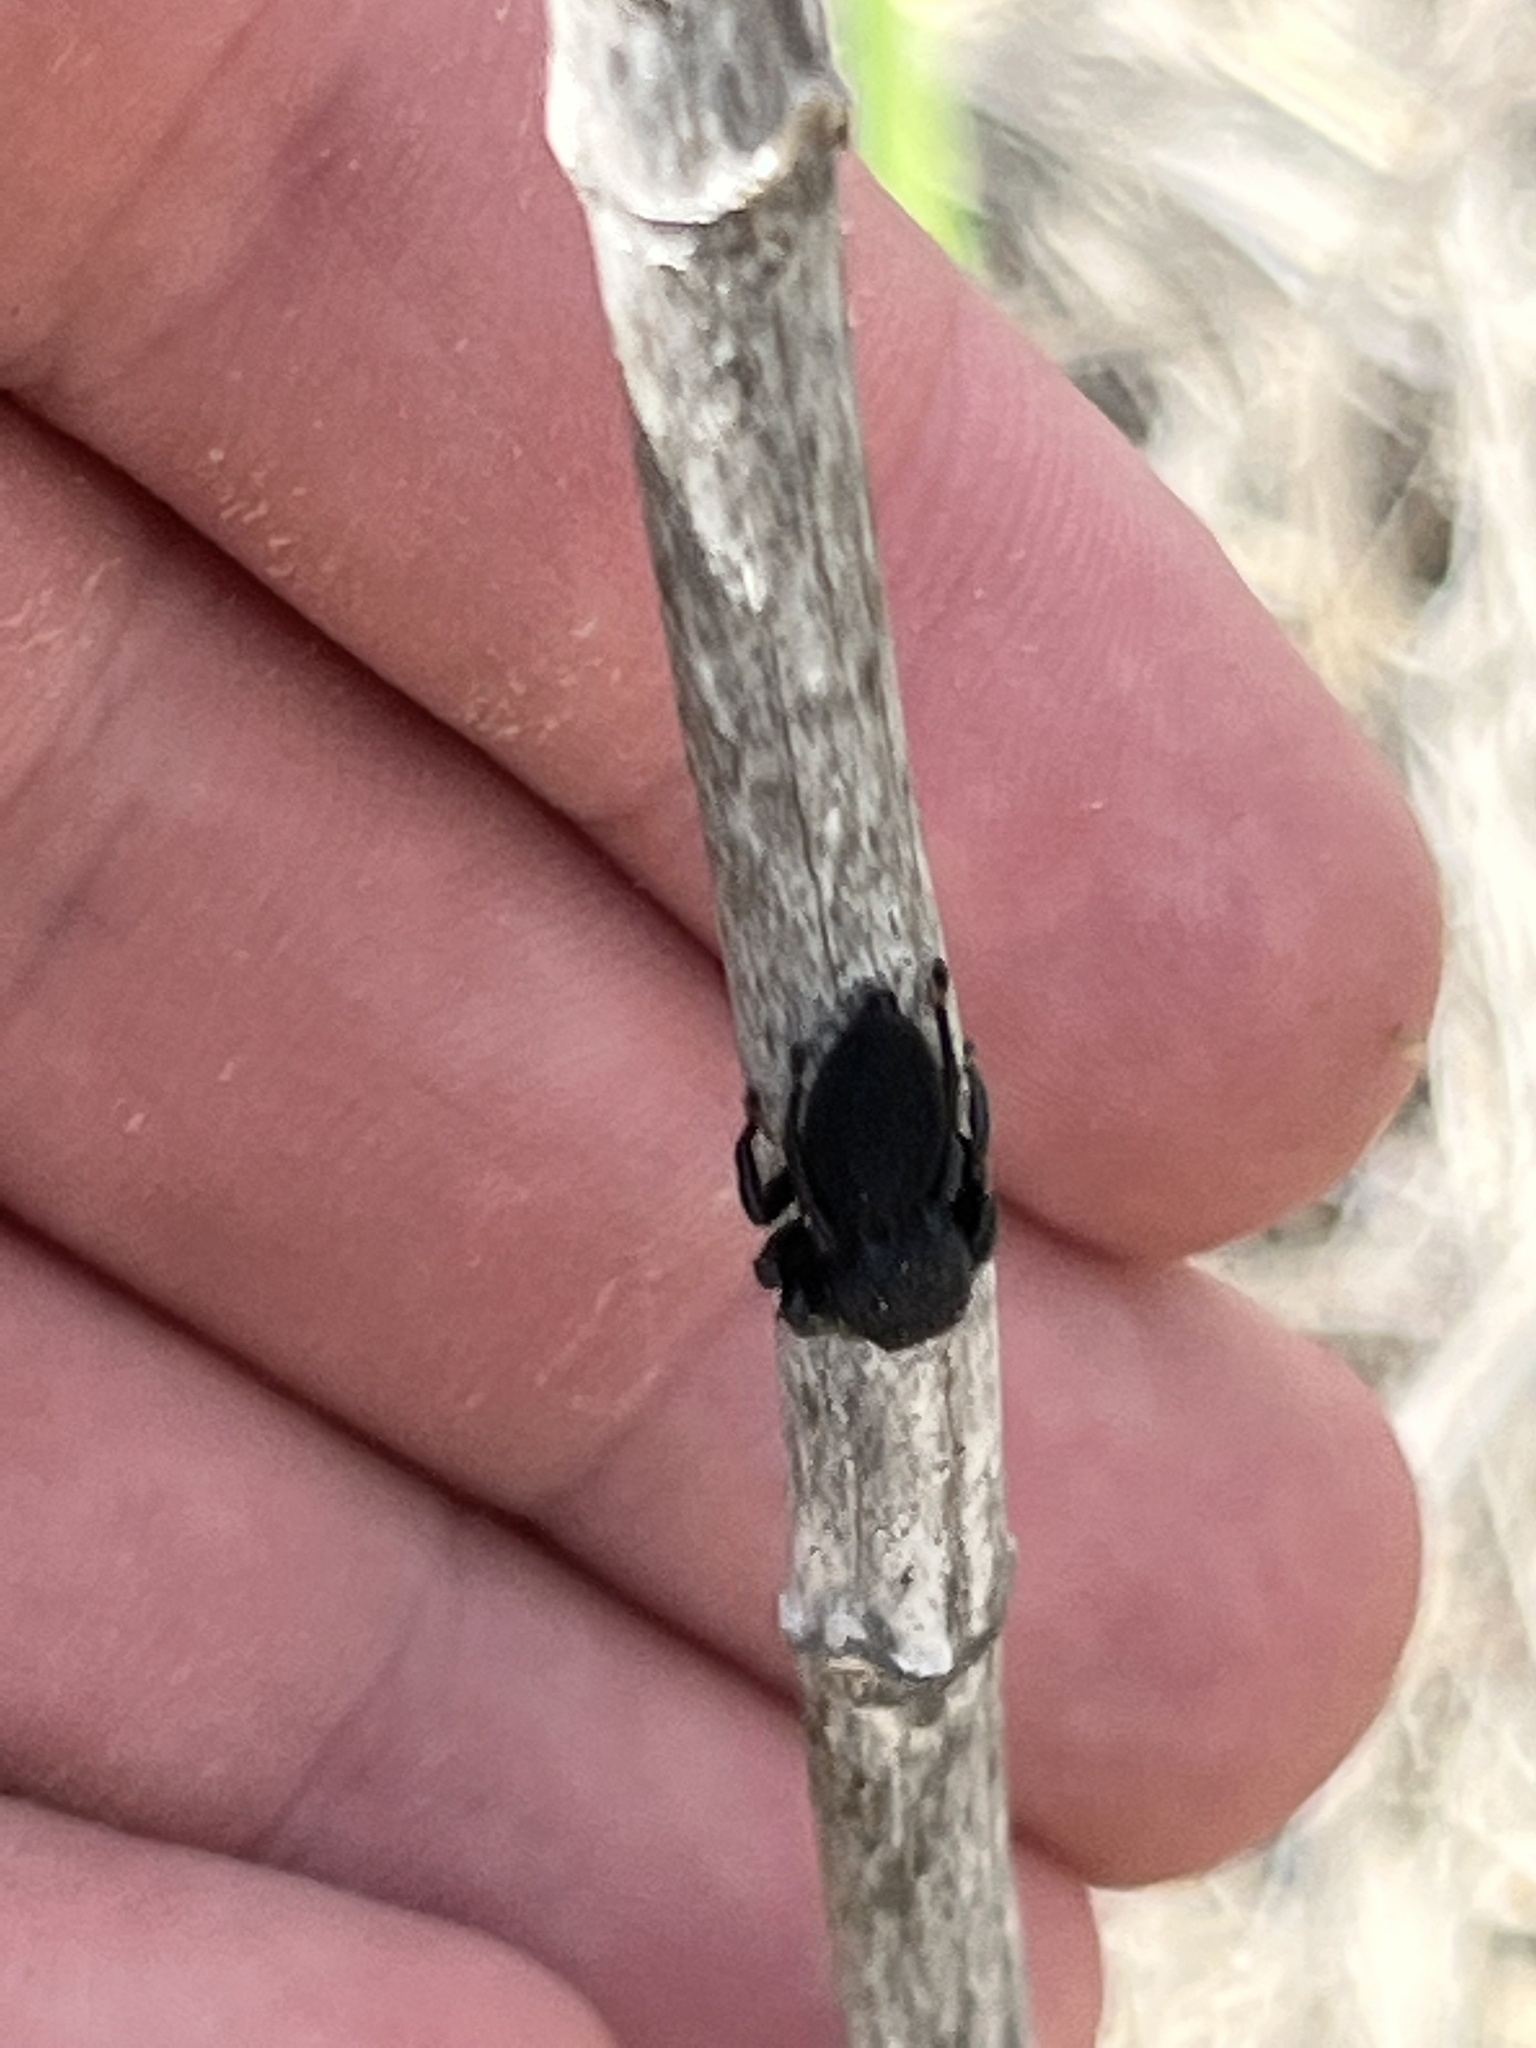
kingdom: Animalia
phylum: Arthropoda
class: Arachnida
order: Araneae
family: Salticidae
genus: Phidippus
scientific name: Phidippus georgii
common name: Jumping spiders
